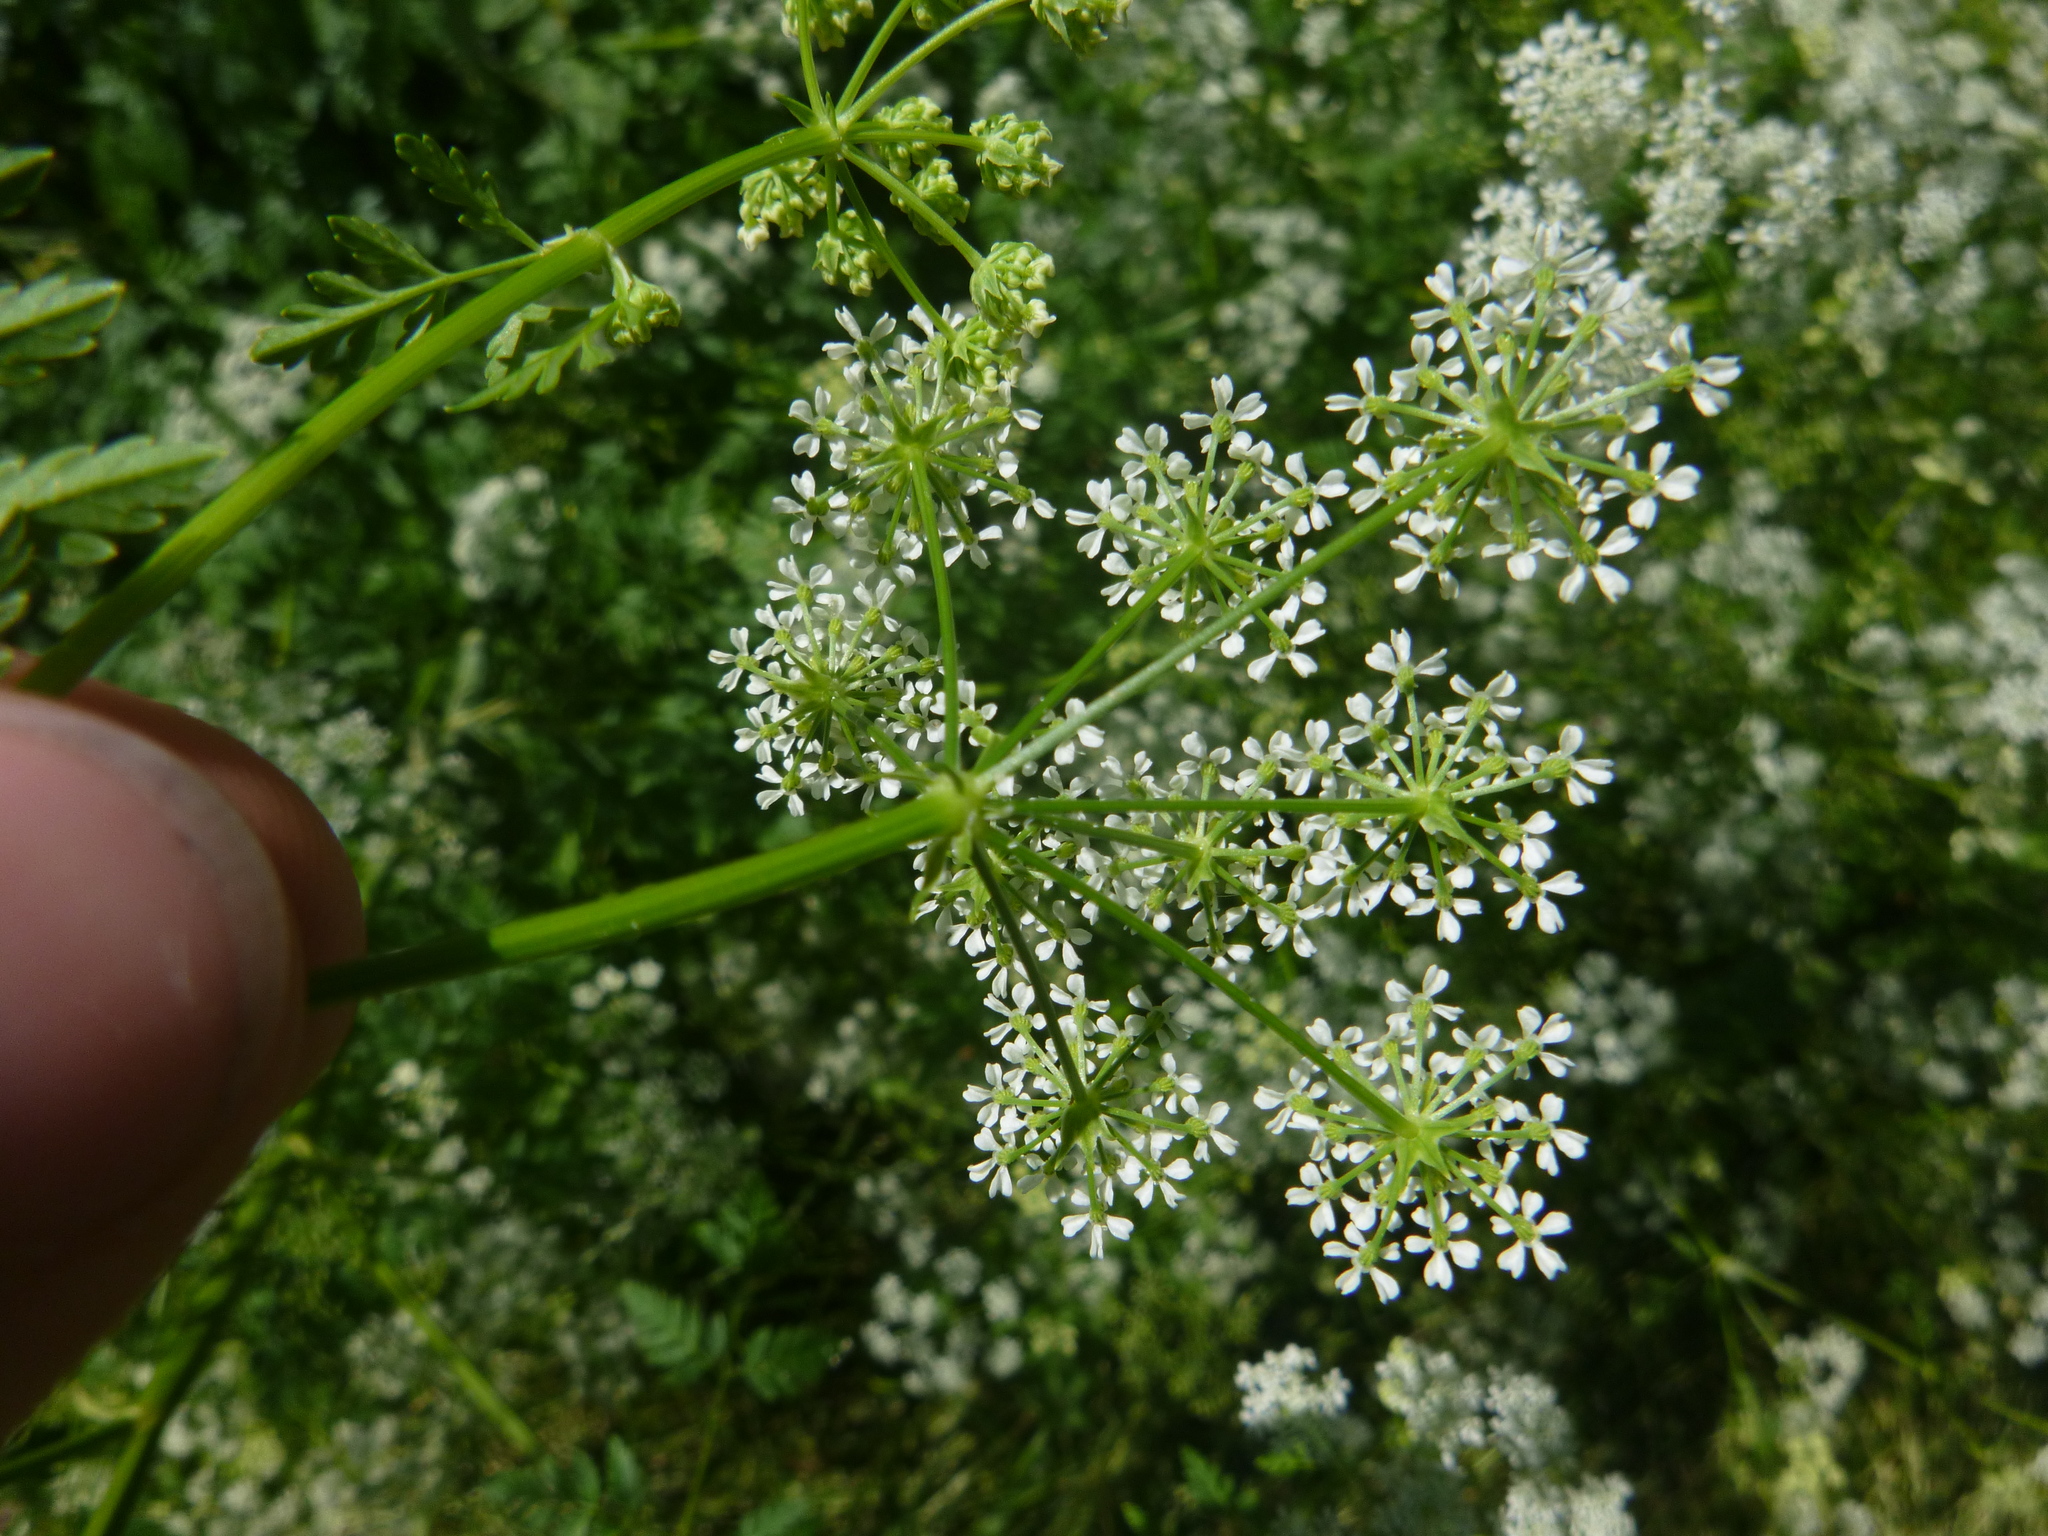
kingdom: Plantae
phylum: Tracheophyta
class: Magnoliopsida
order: Apiales
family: Apiaceae
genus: Anthriscus
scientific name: Anthriscus sylvestris
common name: Cow parsley
